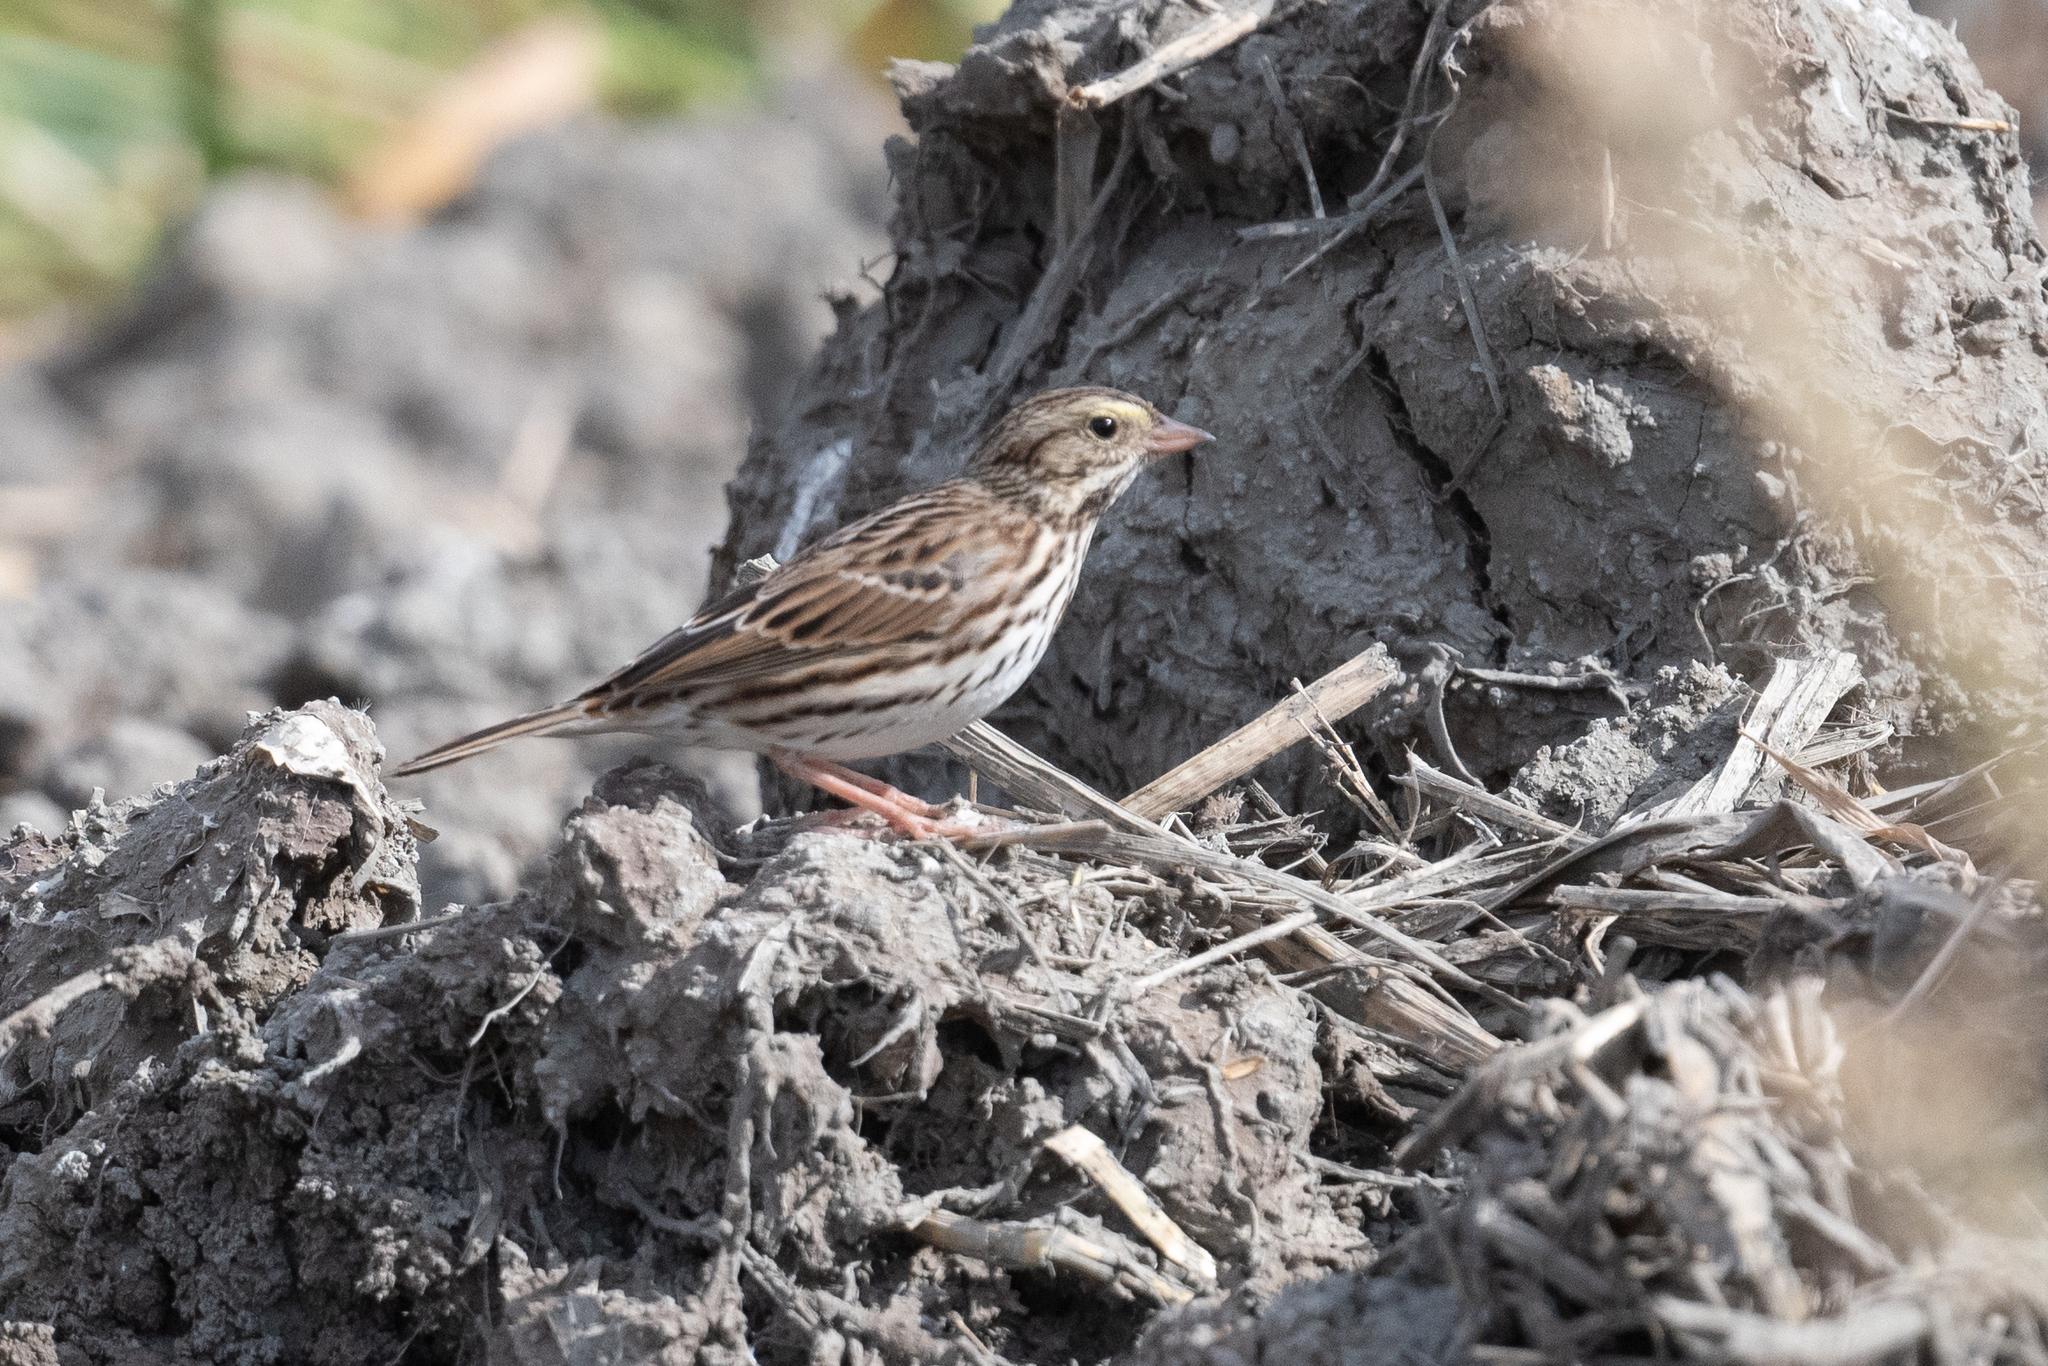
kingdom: Animalia
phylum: Chordata
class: Aves
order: Passeriformes
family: Passerellidae
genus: Passerculus
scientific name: Passerculus sandwichensis
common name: Savannah sparrow
